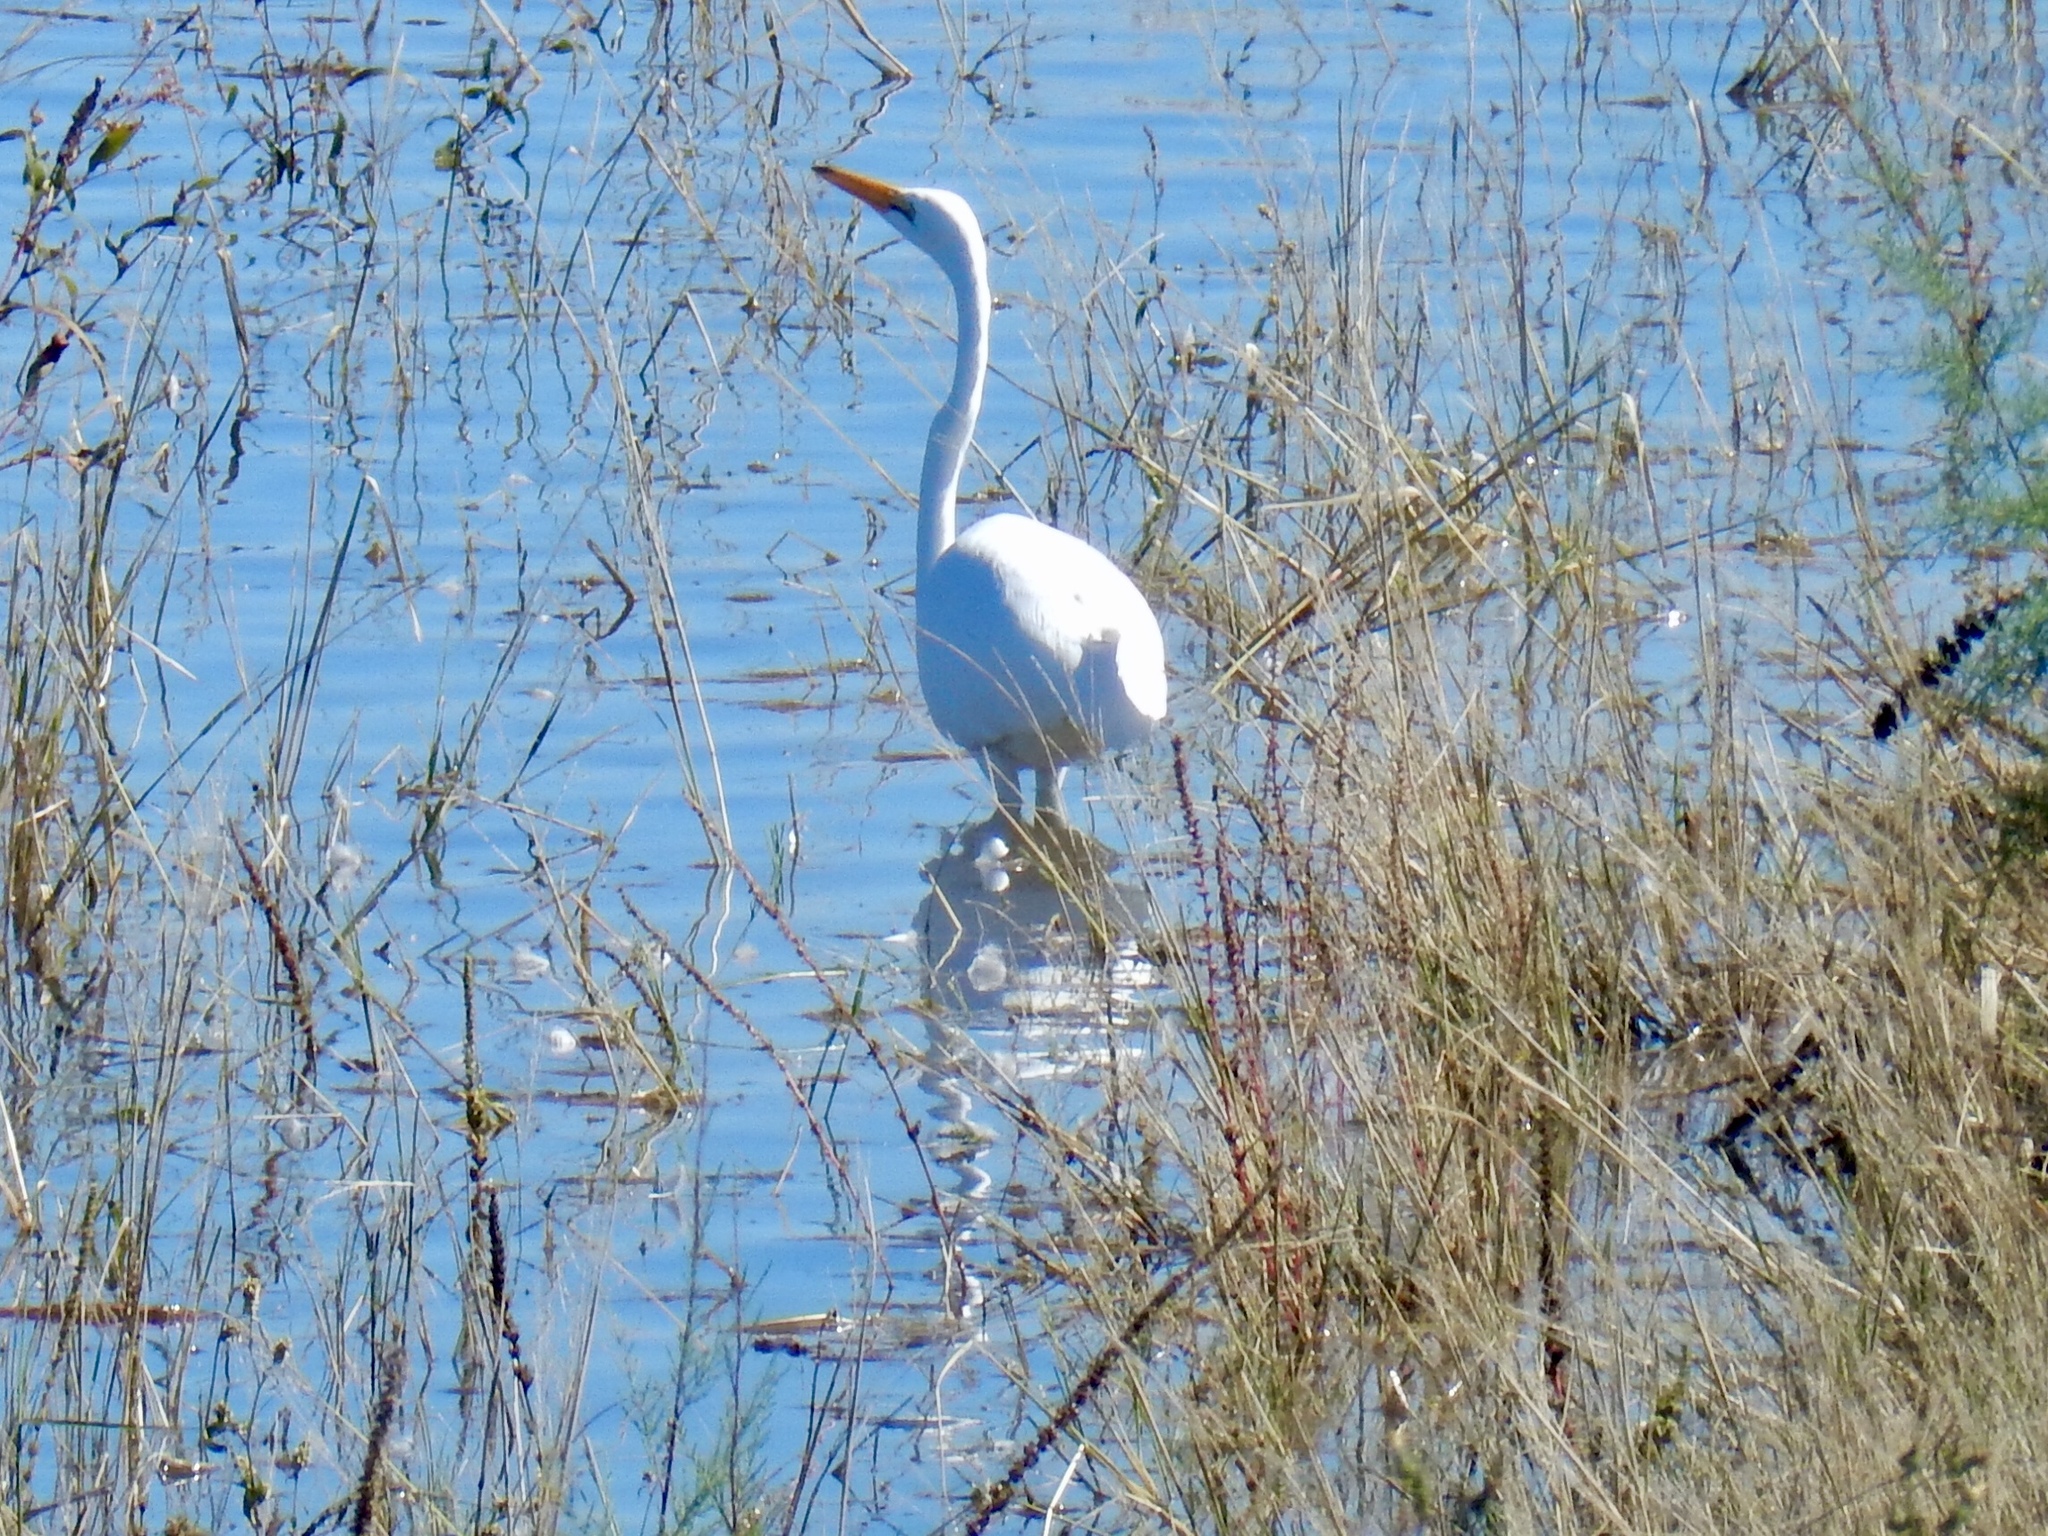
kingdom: Animalia
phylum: Chordata
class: Aves
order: Pelecaniformes
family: Ardeidae
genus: Ardea
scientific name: Ardea alba
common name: Great egret
